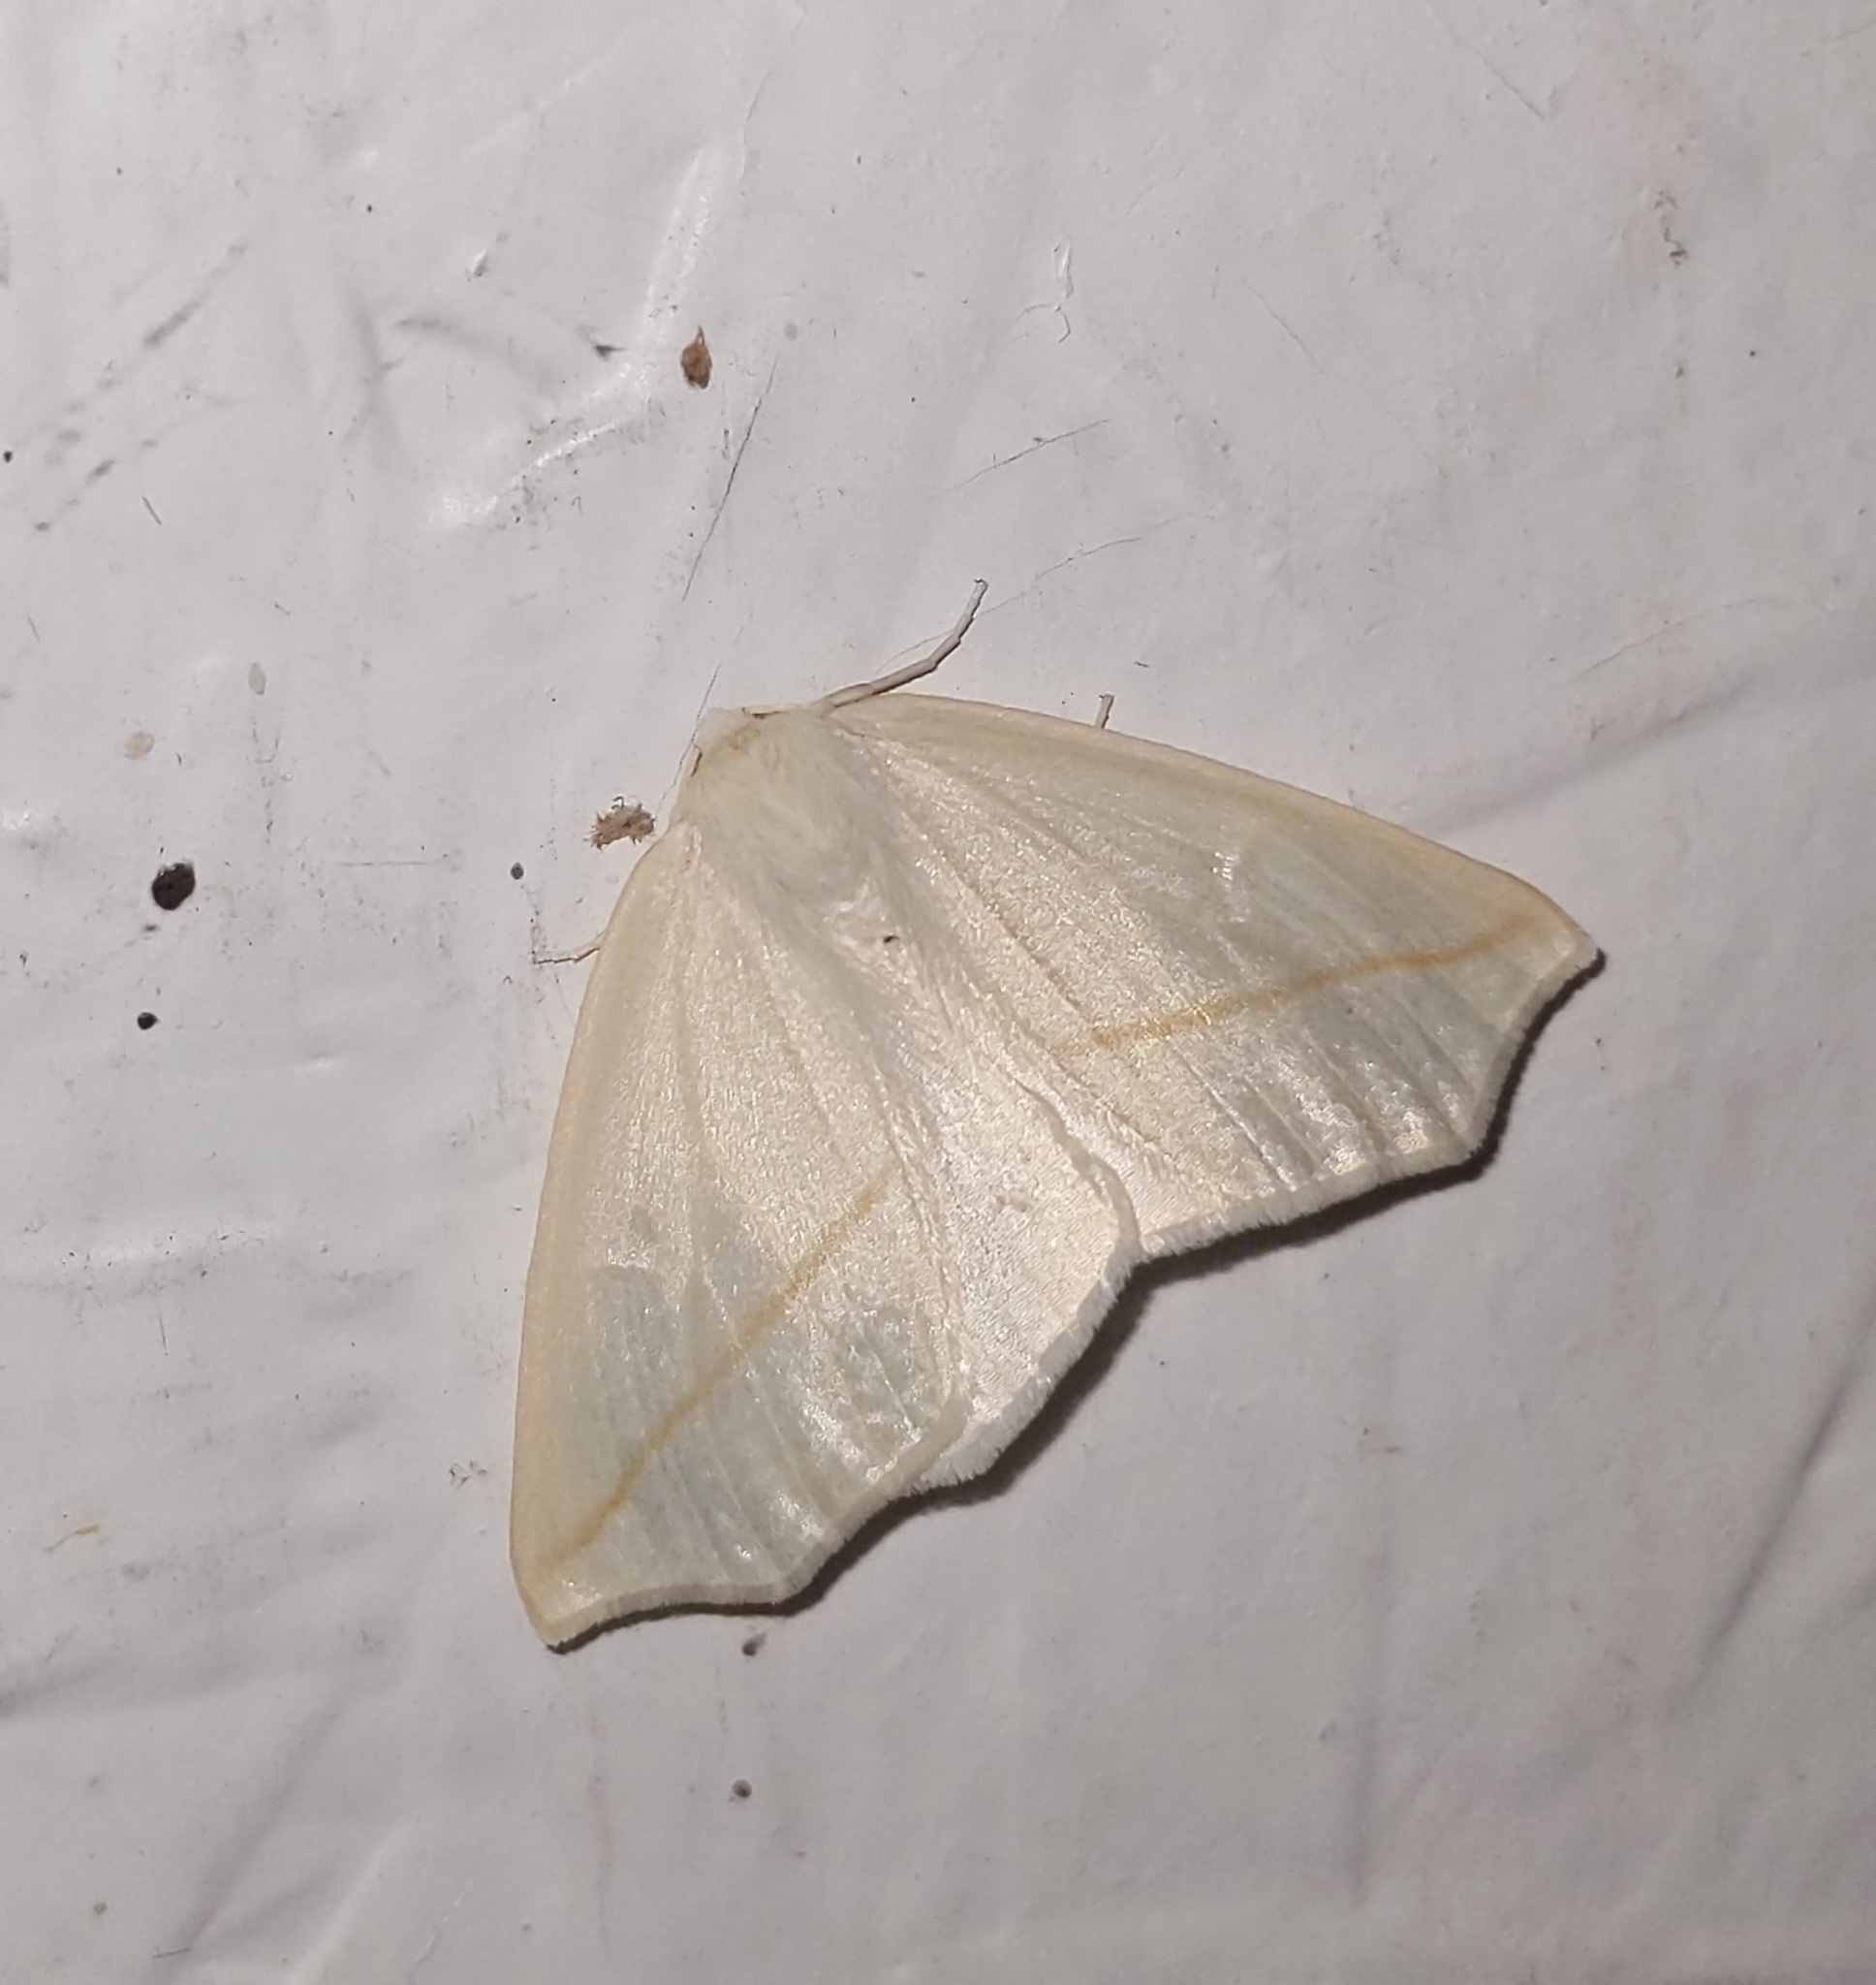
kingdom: Animalia
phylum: Arthropoda
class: Insecta
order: Lepidoptera
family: Geometridae
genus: Tetracis
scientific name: Tetracis cachexiata
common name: White slant-line
